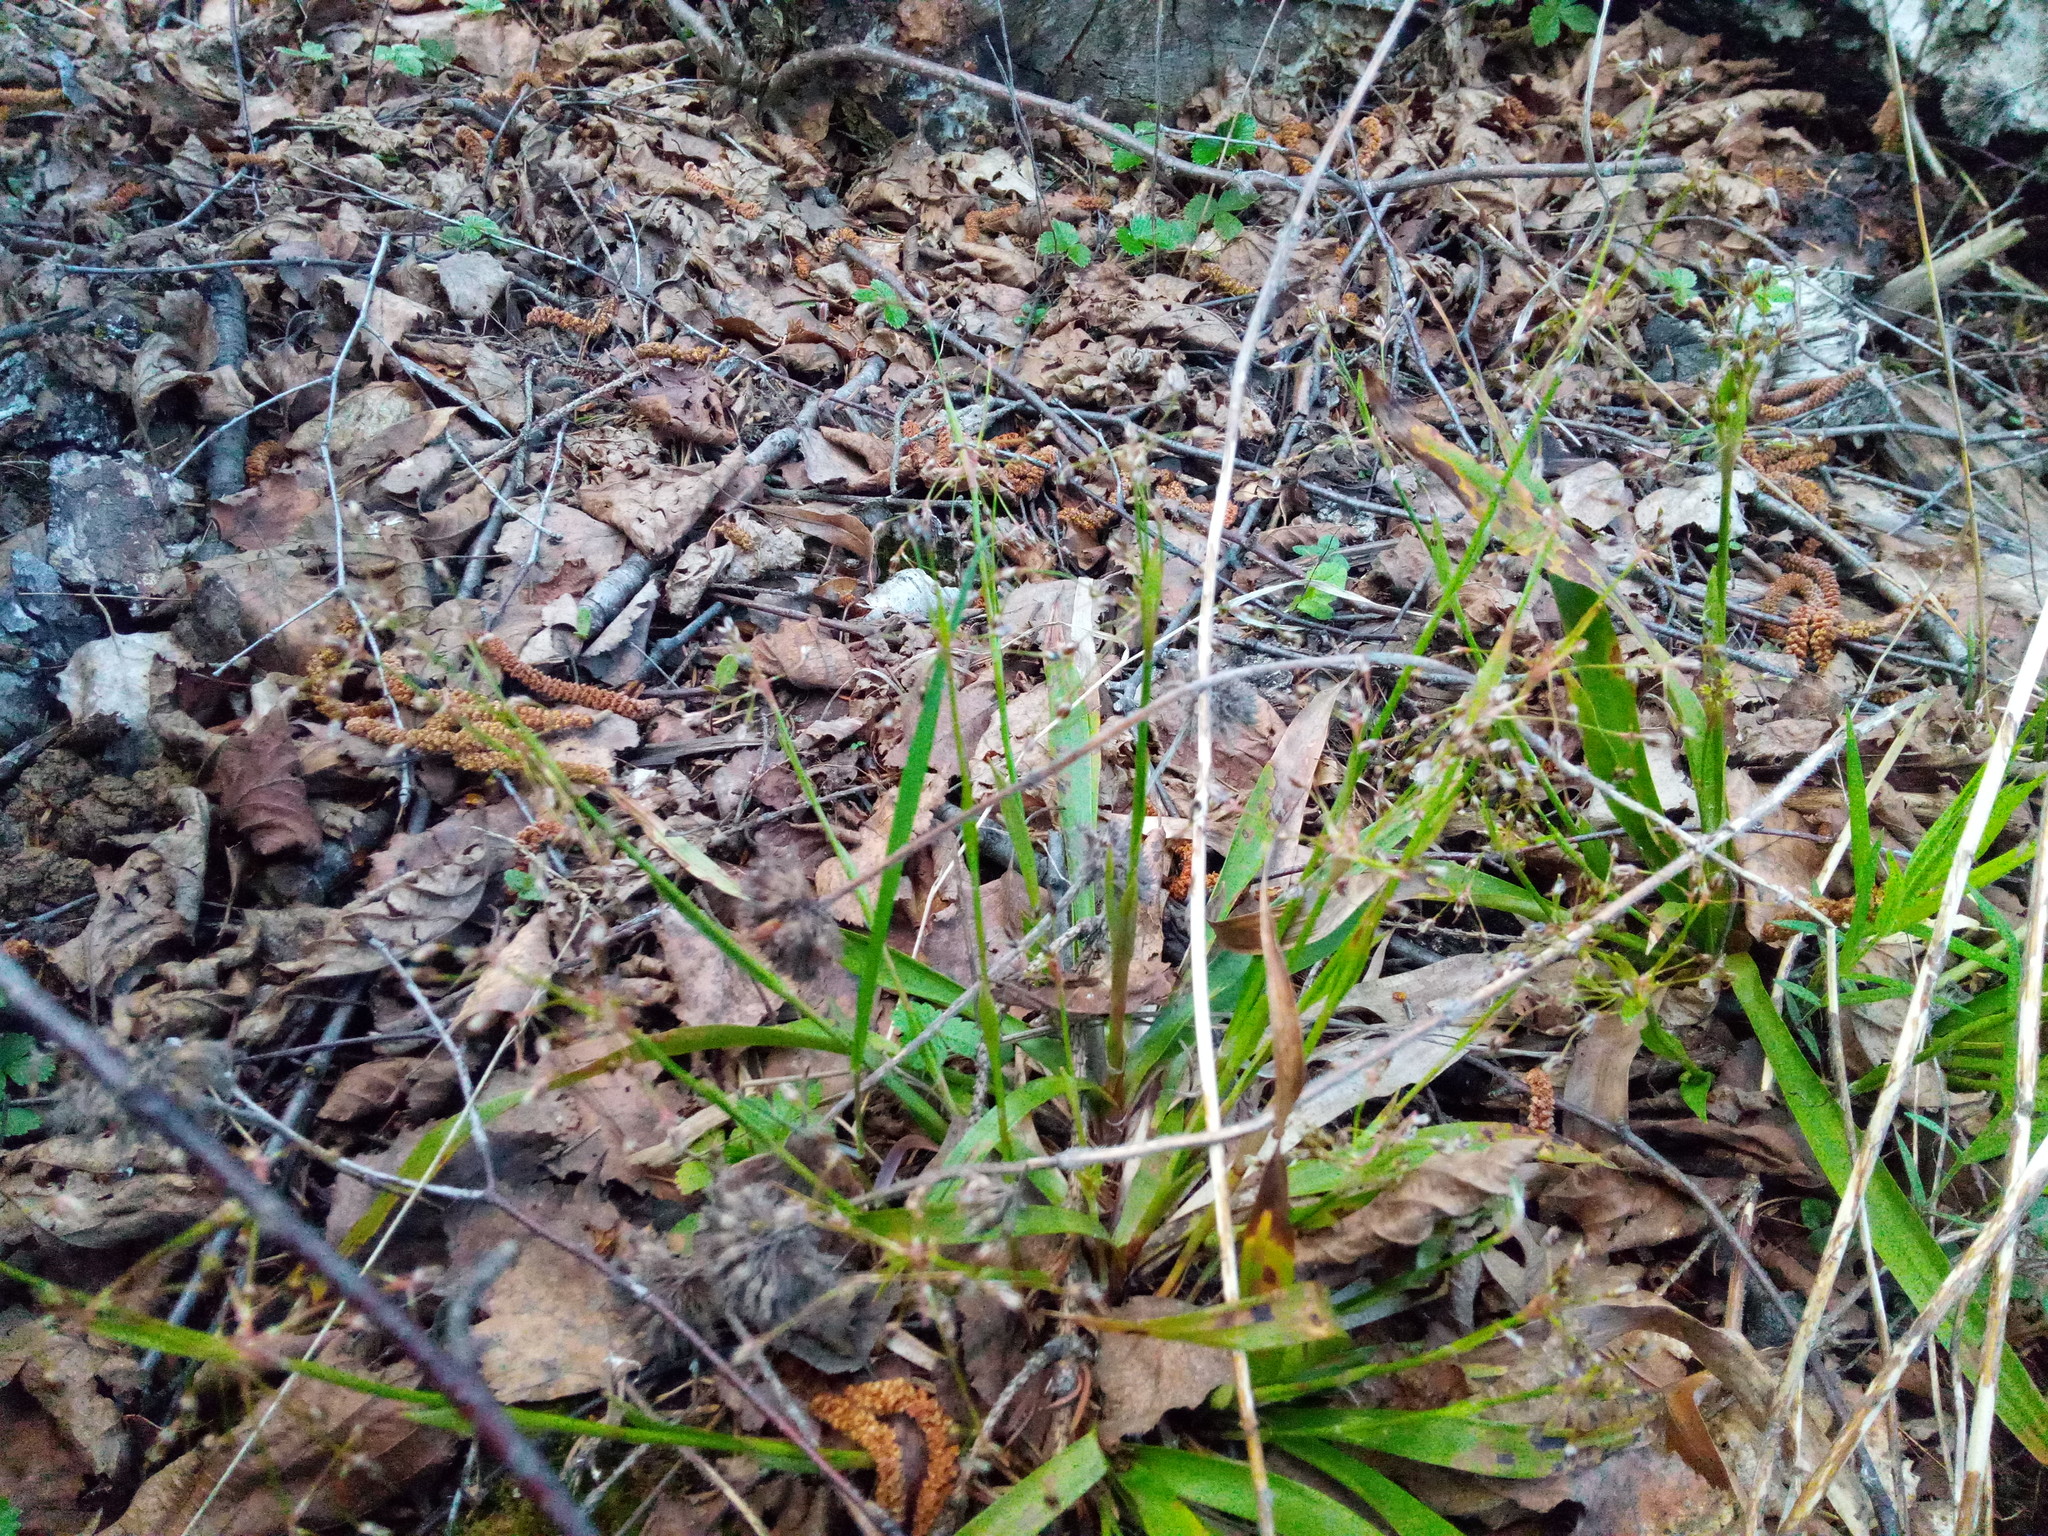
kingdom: Plantae
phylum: Tracheophyta
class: Liliopsida
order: Poales
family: Juncaceae
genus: Luzula
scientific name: Luzula pilosa
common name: Hairy wood-rush
